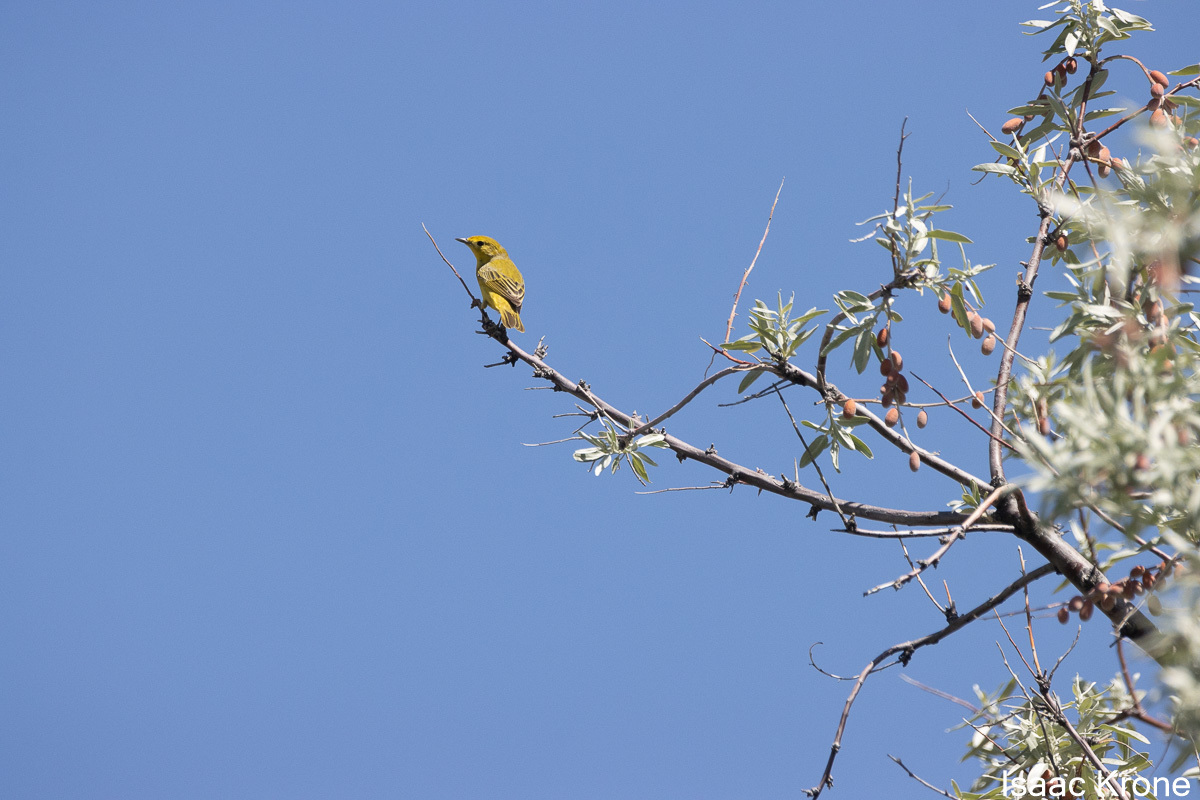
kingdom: Animalia
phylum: Chordata
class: Aves
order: Passeriformes
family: Parulidae
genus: Setophaga
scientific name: Setophaga petechia
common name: Yellow warbler
